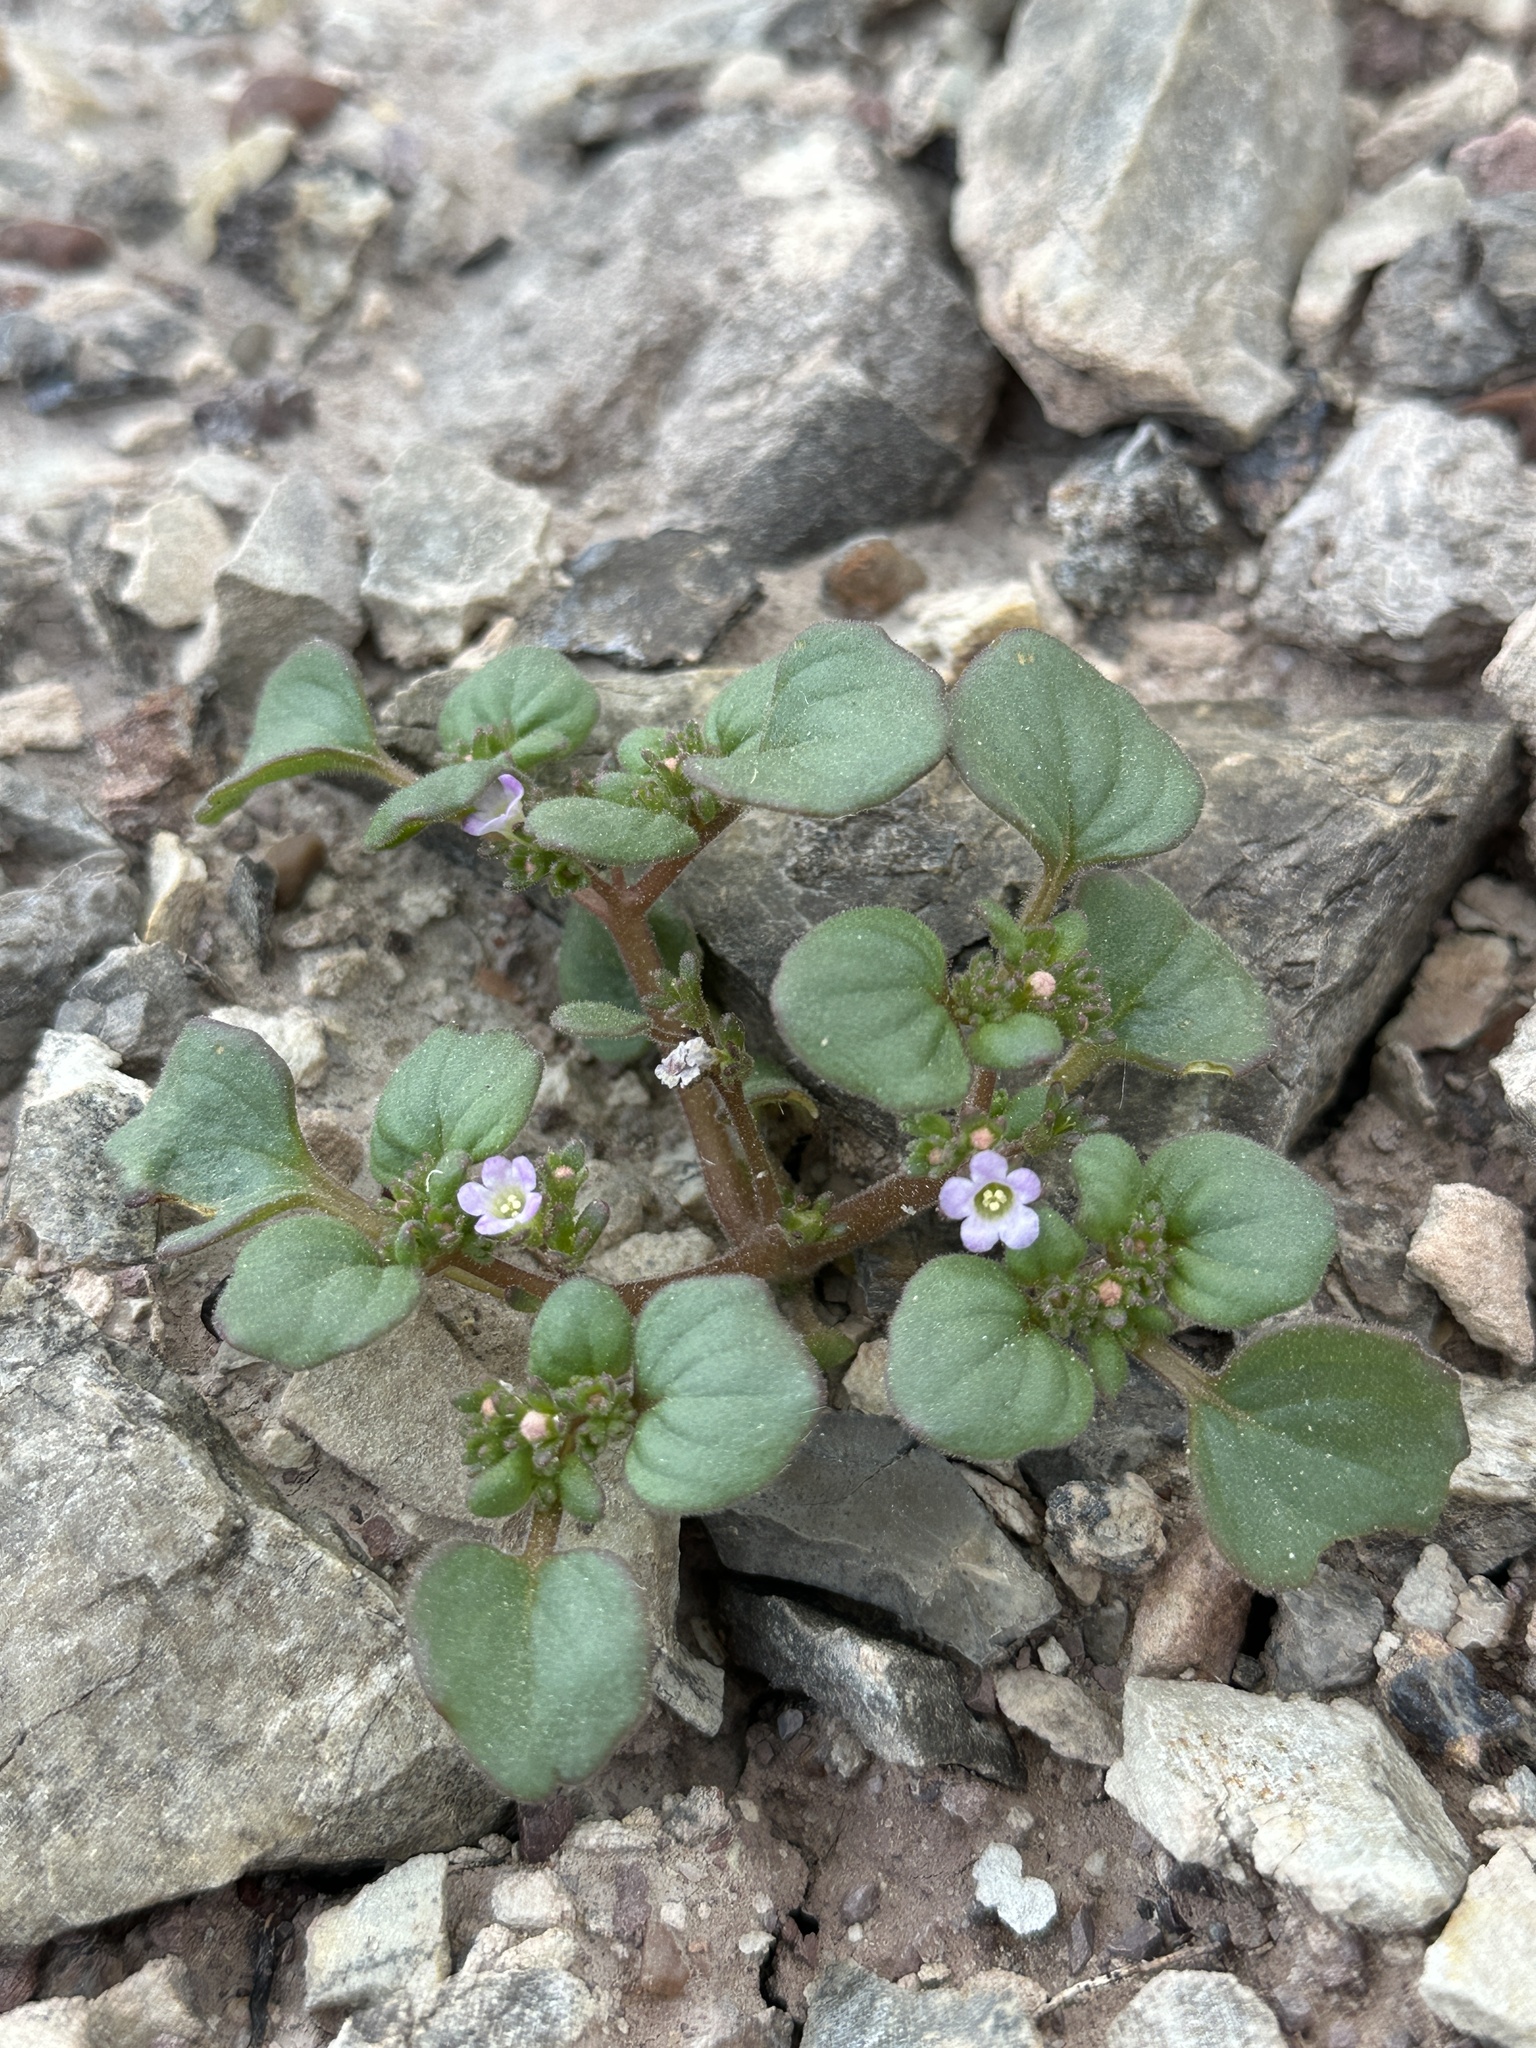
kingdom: Plantae
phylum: Tracheophyta
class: Magnoliopsida
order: Boraginales
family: Hydrophyllaceae
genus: Phacelia
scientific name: Phacelia demissa
